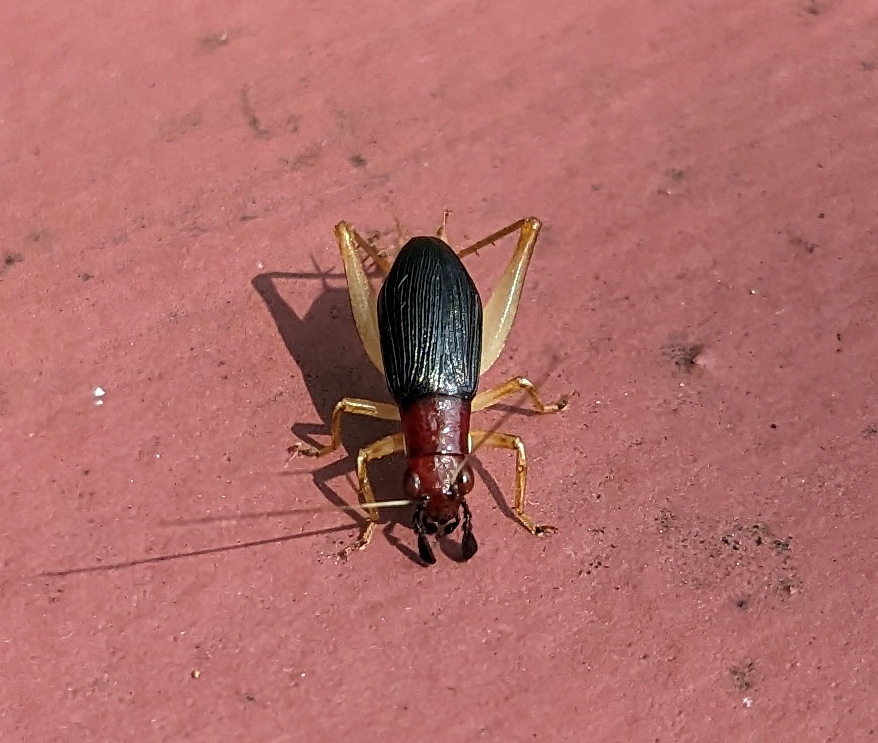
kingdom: Animalia
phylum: Arthropoda
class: Insecta
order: Orthoptera
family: Trigonidiidae
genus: Phyllopalpus
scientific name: Phyllopalpus pulchellus
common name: Handsome trig
